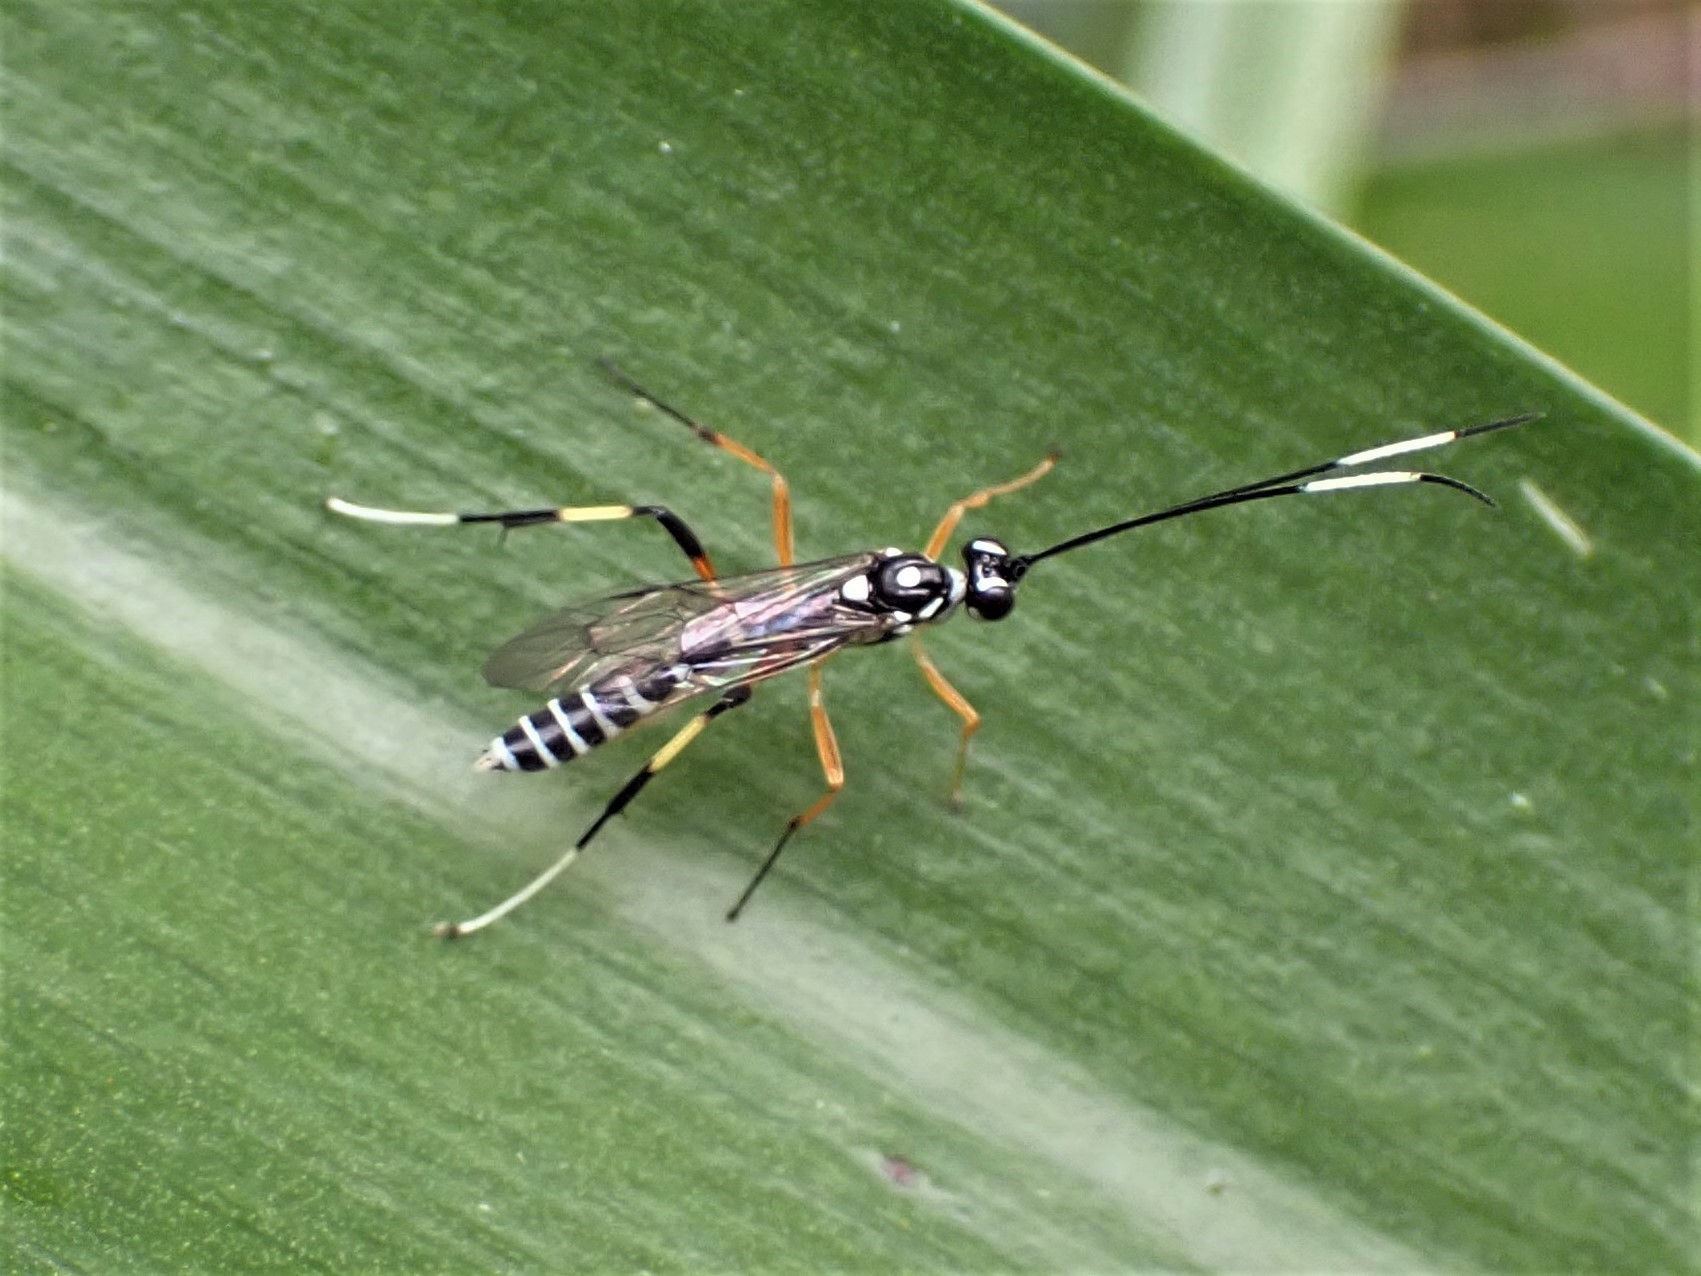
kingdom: Animalia
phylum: Arthropoda
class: Insecta
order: Hymenoptera
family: Ichneumonidae
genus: Xanthocryptus
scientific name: Xanthocryptus novozealandicus
